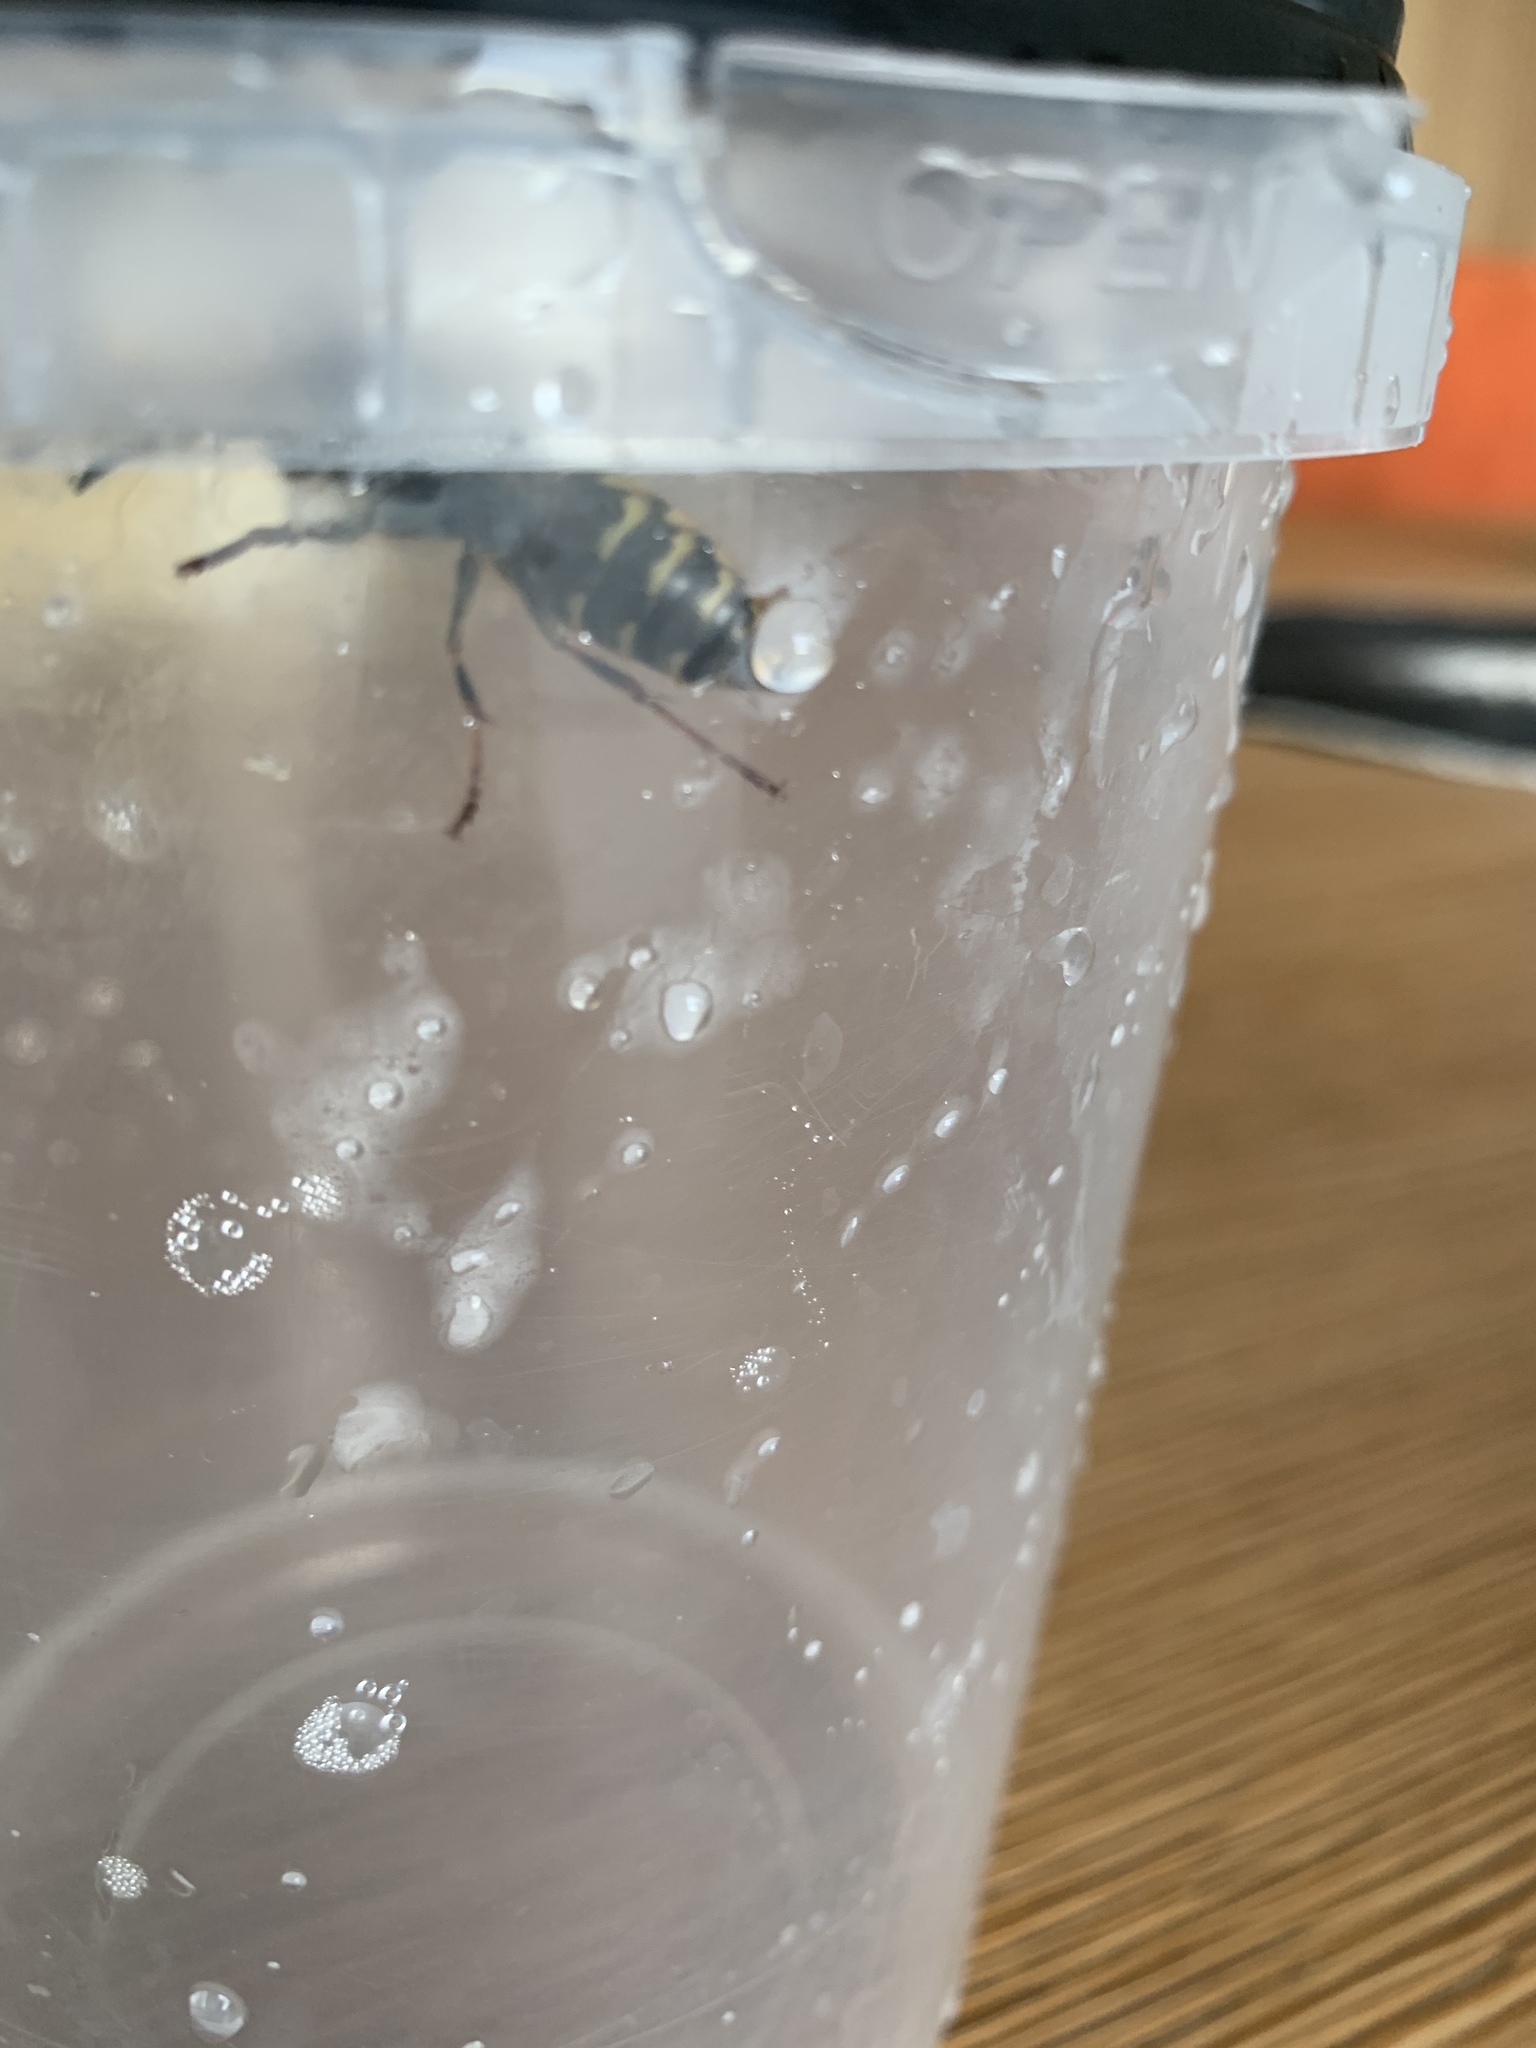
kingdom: Animalia
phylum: Arthropoda
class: Insecta
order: Hymenoptera
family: Vespidae
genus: Vespula
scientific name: Vespula vulgaris
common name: Common wasp
